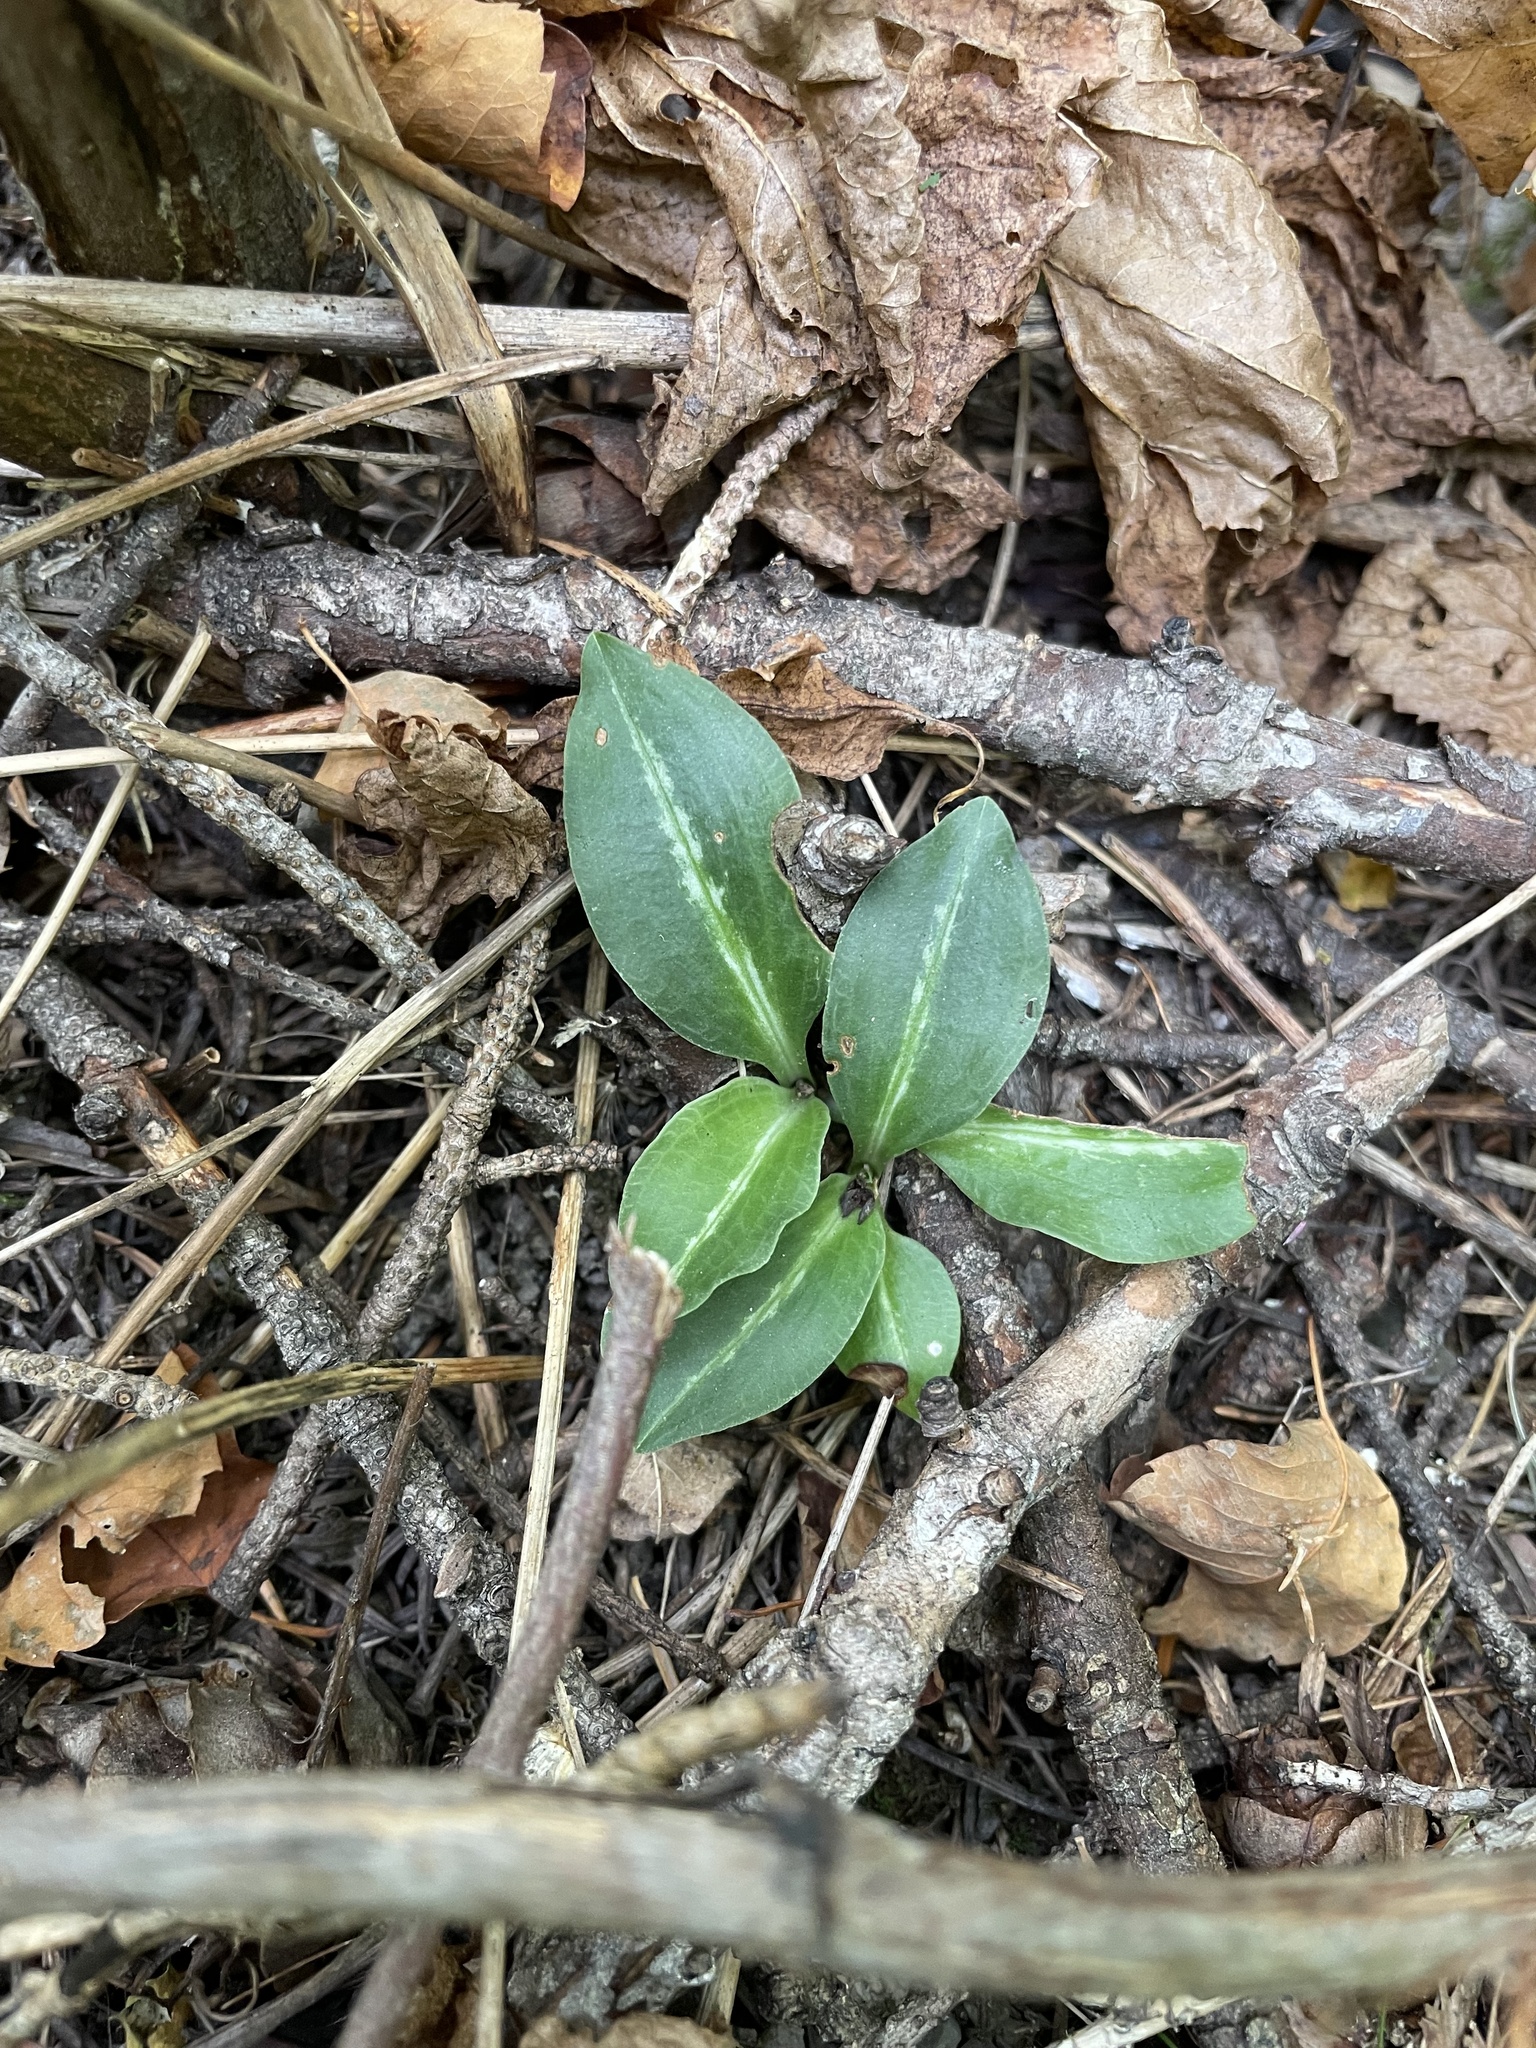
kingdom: Plantae
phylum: Tracheophyta
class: Liliopsida
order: Asparagales
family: Orchidaceae
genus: Goodyera
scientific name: Goodyera oblongifolia
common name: Giant rattlesnake-plantain
